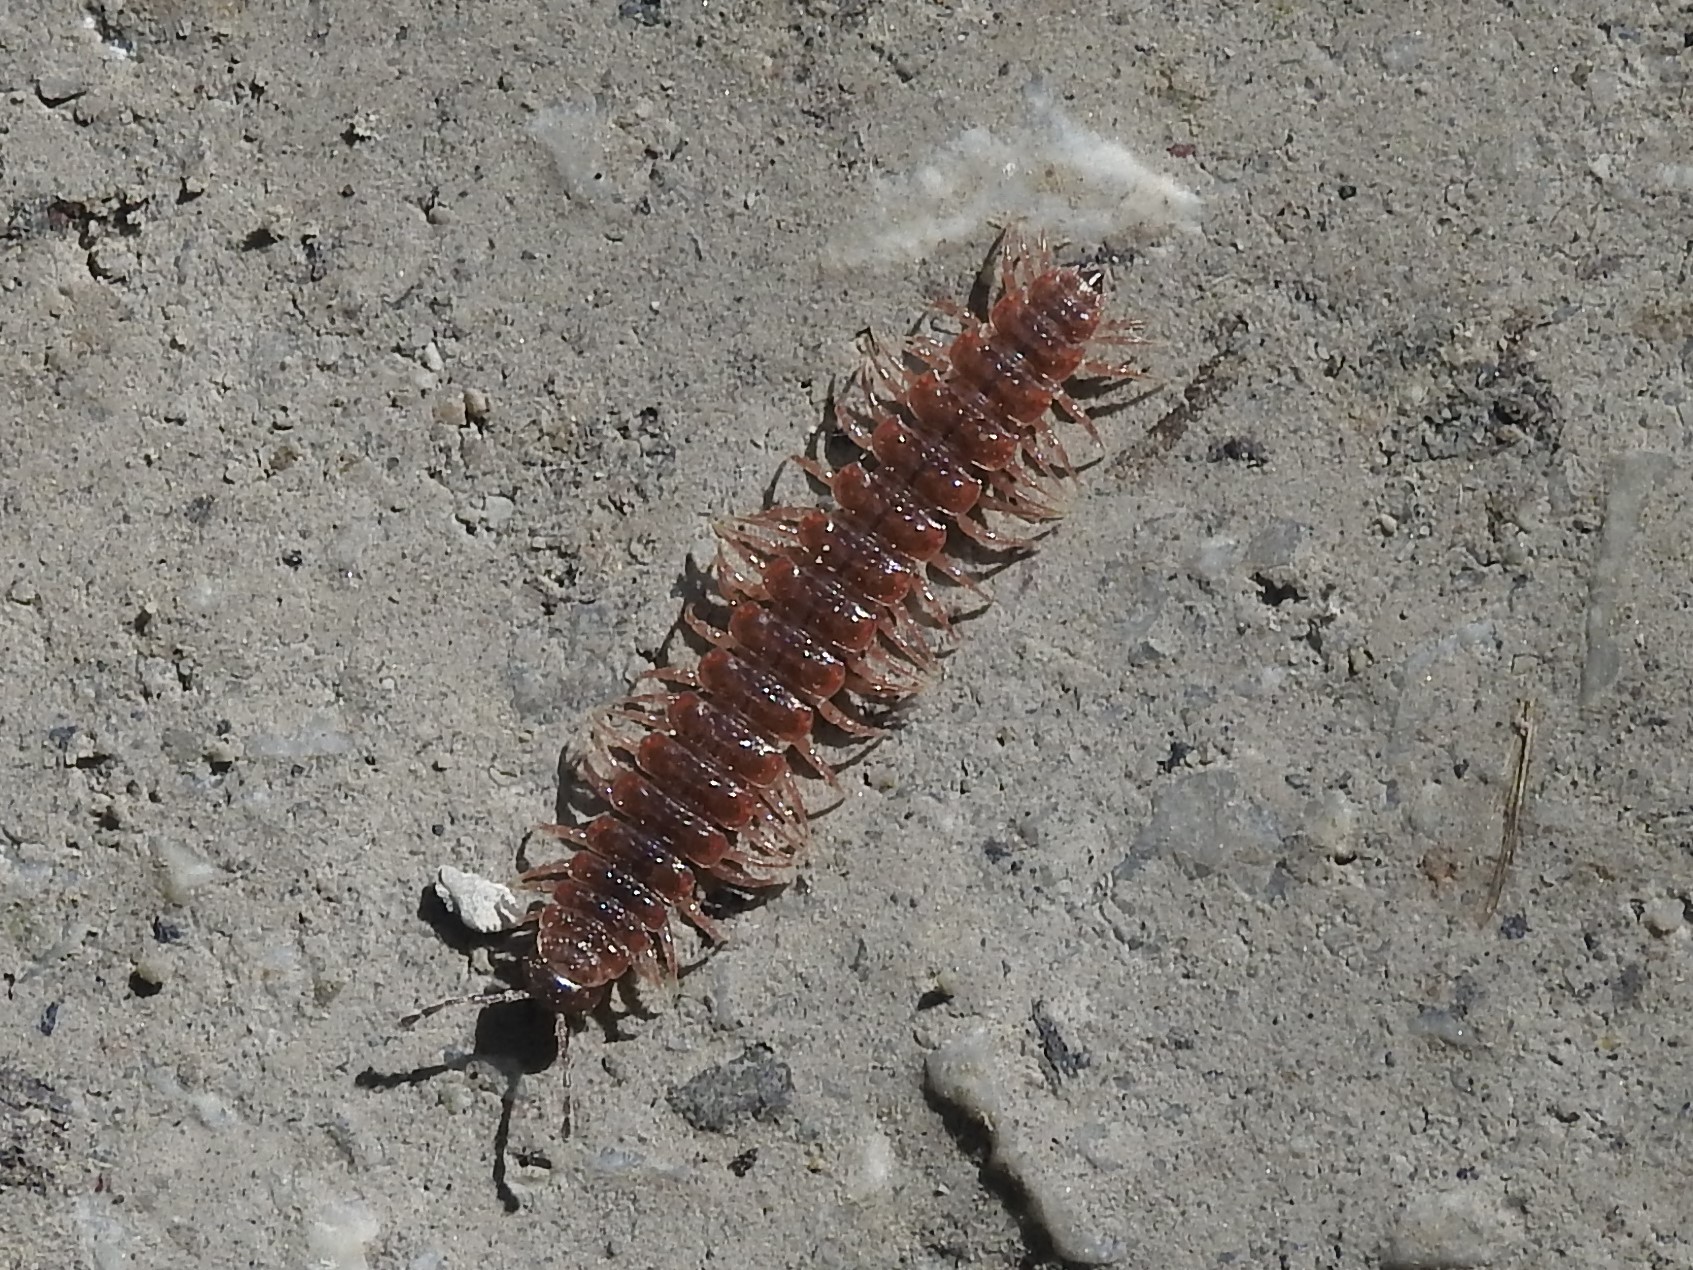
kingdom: Animalia
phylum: Arthropoda
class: Diplopoda
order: Polydesmida
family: Polydesmidae
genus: Pseudopolydesmus
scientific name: Pseudopolydesmus serratus
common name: Common pink flat-back millipede
